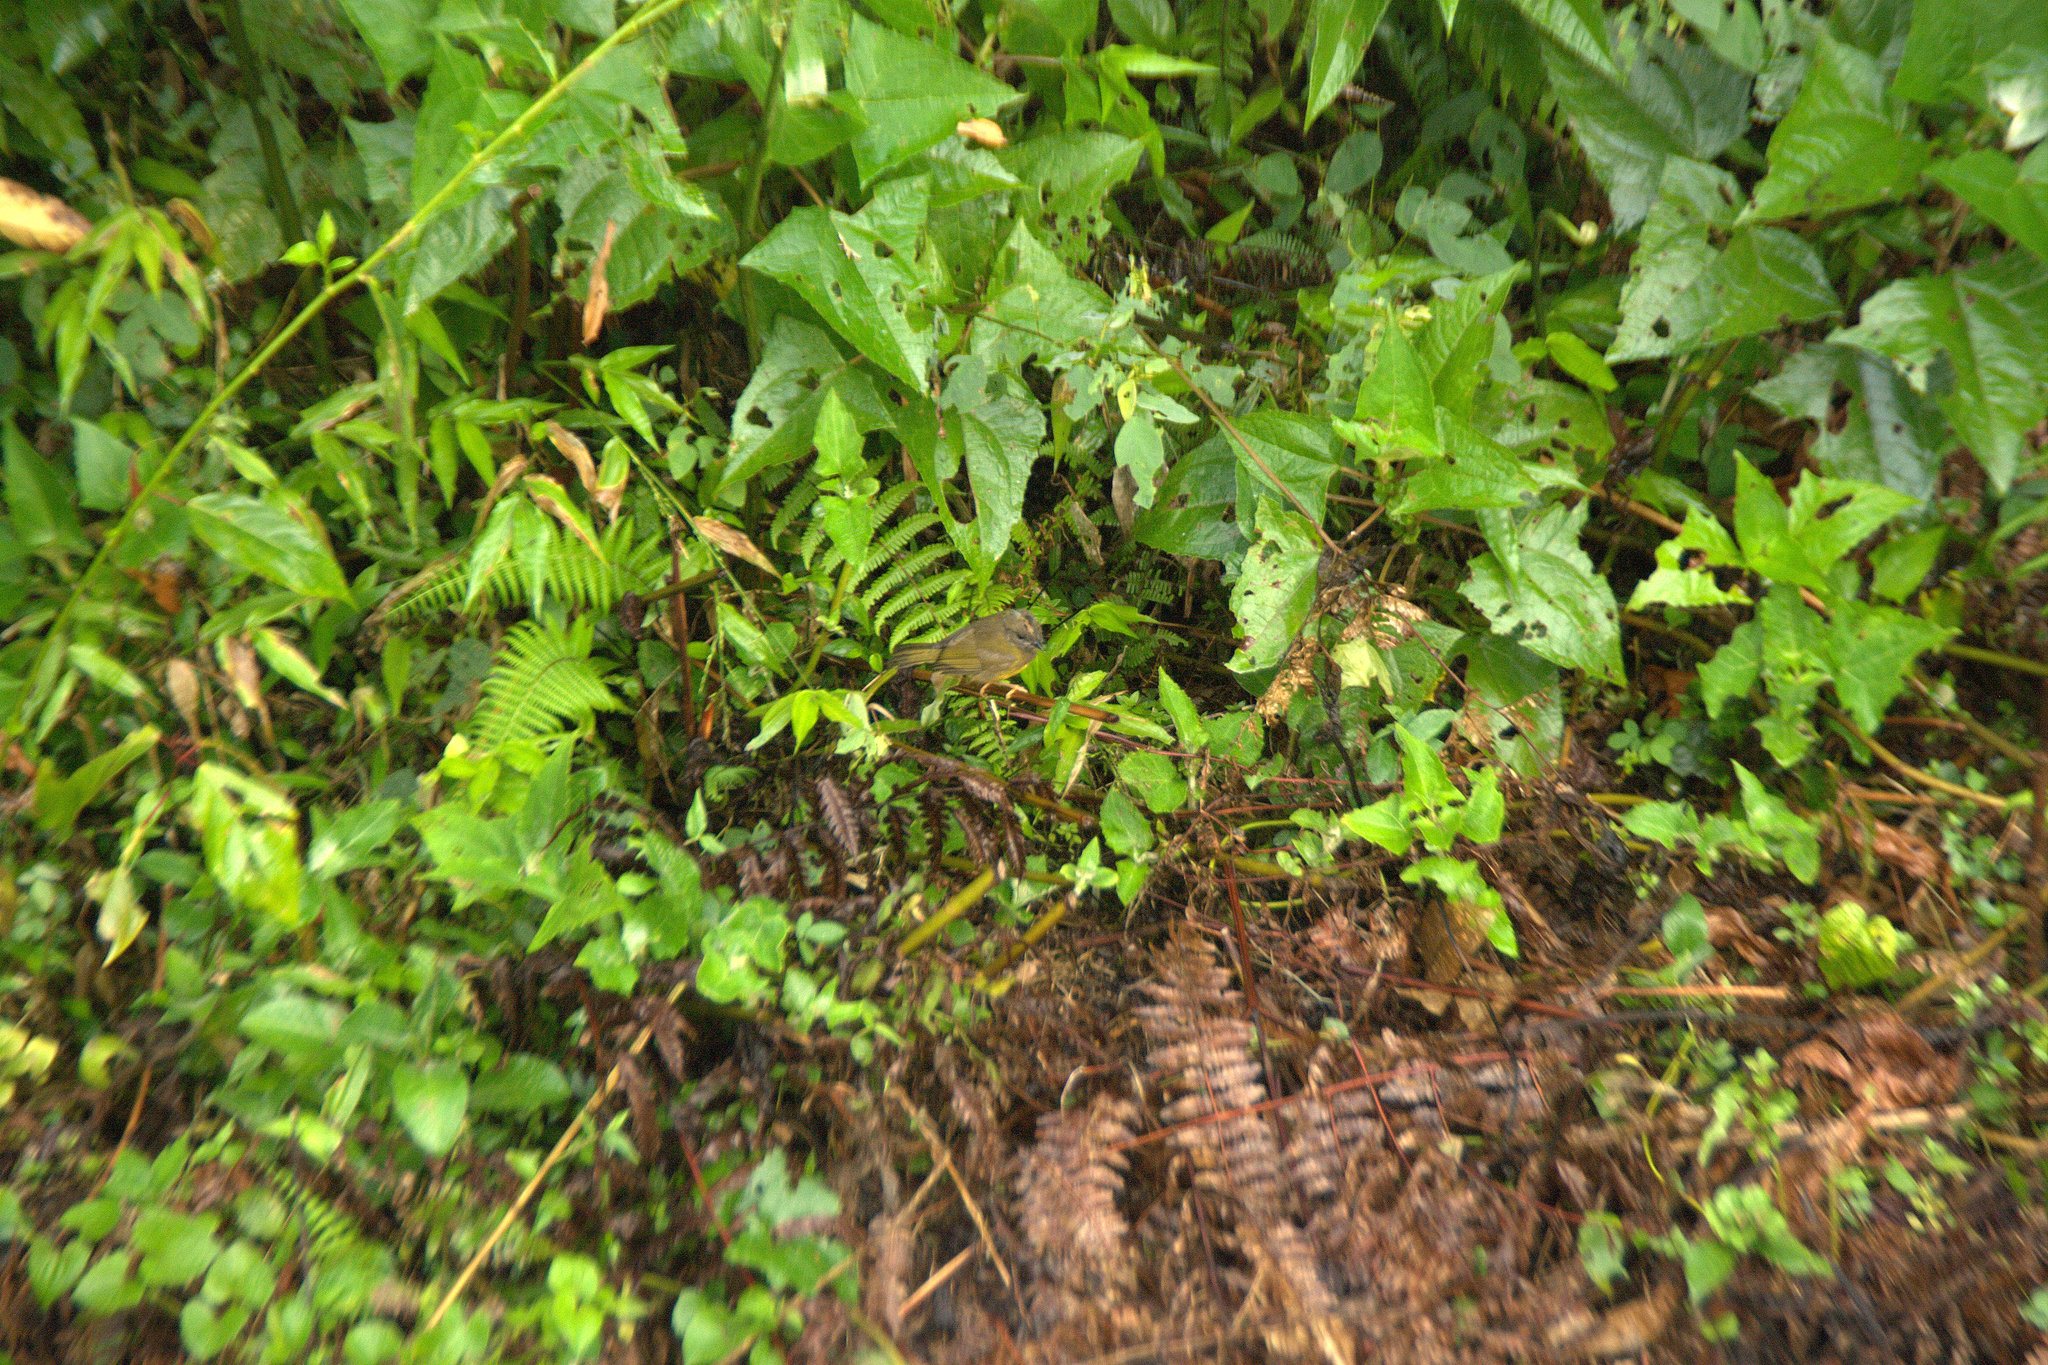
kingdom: Animalia
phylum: Chordata
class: Aves
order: Passeriformes
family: Parulidae
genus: Myiothlypis
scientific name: Myiothlypis coronata
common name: Russet-crowned warbler
